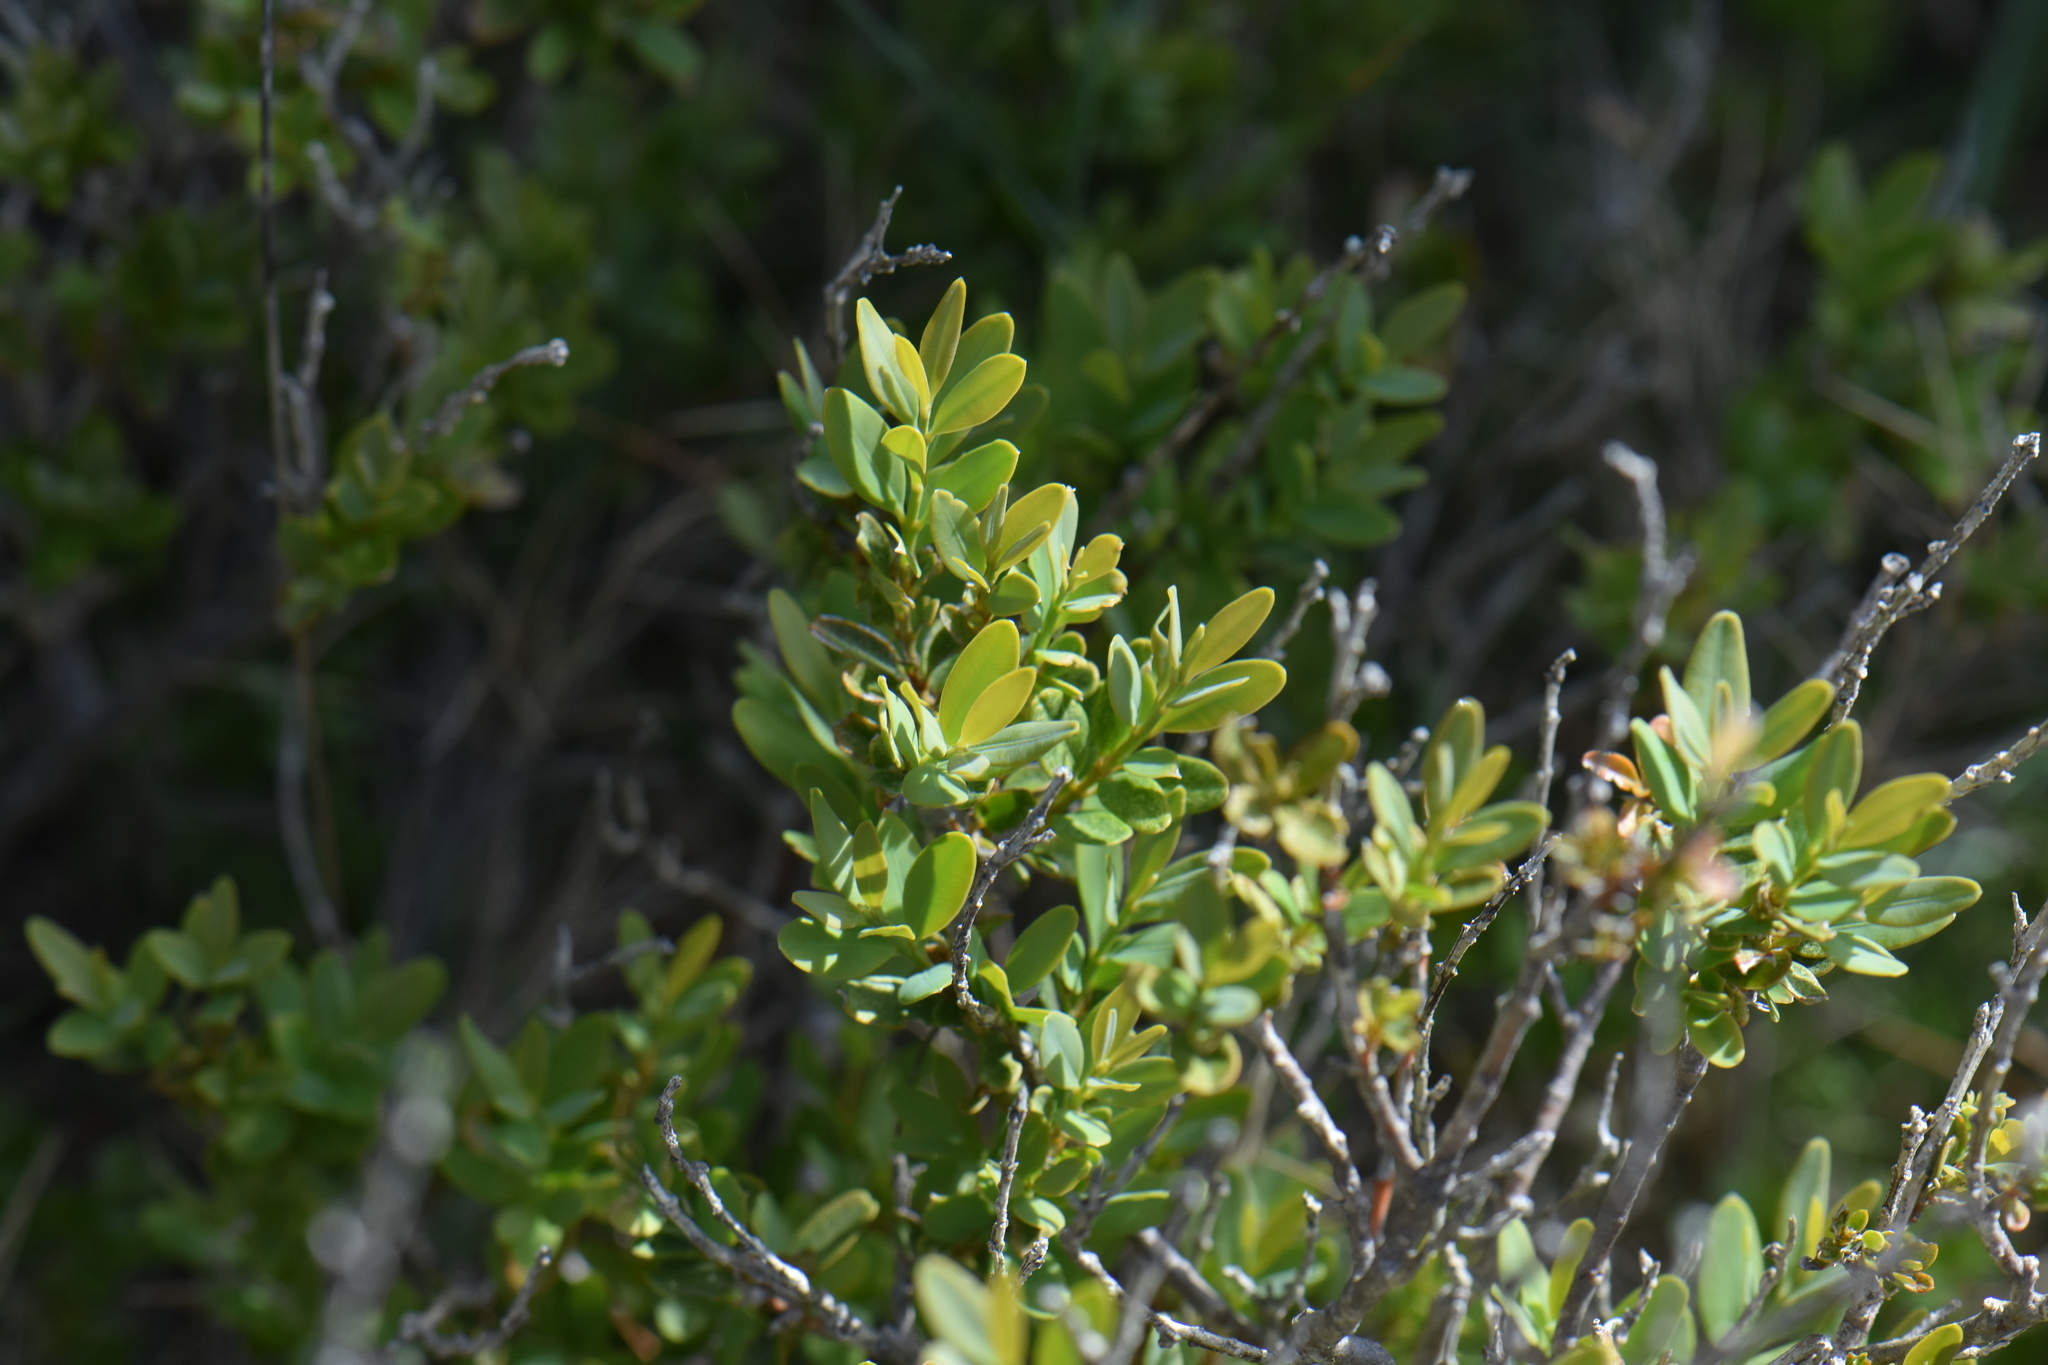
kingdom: Plantae
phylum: Tracheophyta
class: Magnoliopsida
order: Buxales
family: Buxaceae
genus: Buxus
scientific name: Buxus sempervirens
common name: Box
